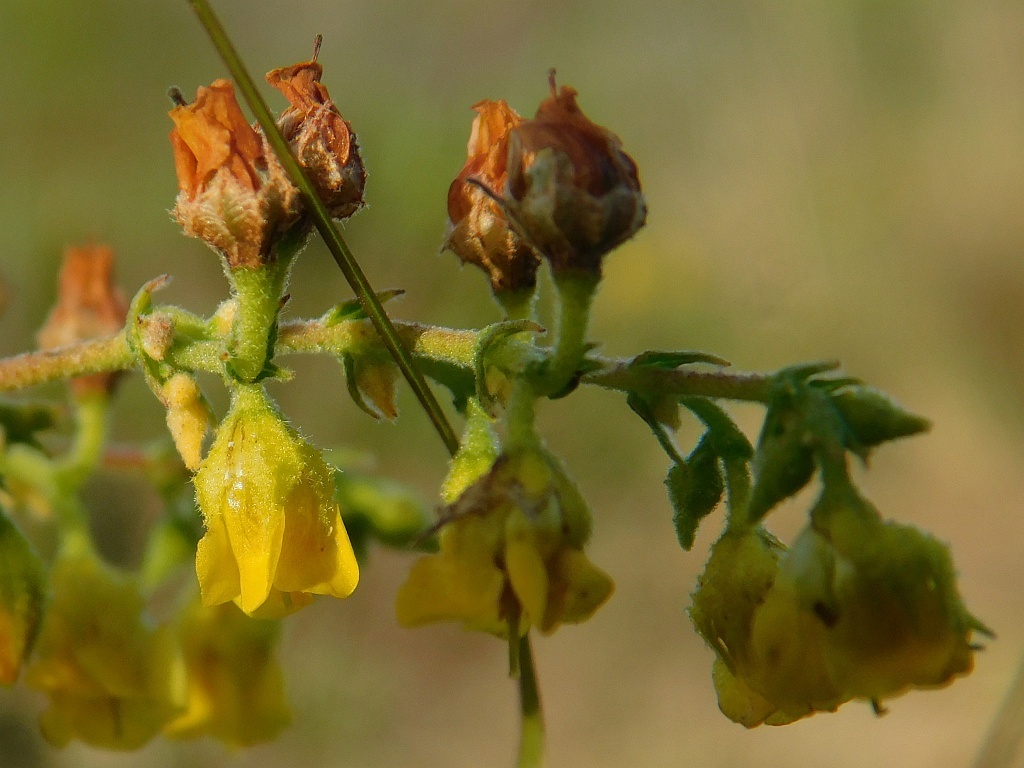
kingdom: Plantae
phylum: Tracheophyta
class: Magnoliopsida
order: Malvales
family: Malvaceae
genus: Hermannia
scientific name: Hermannia alnifolia
